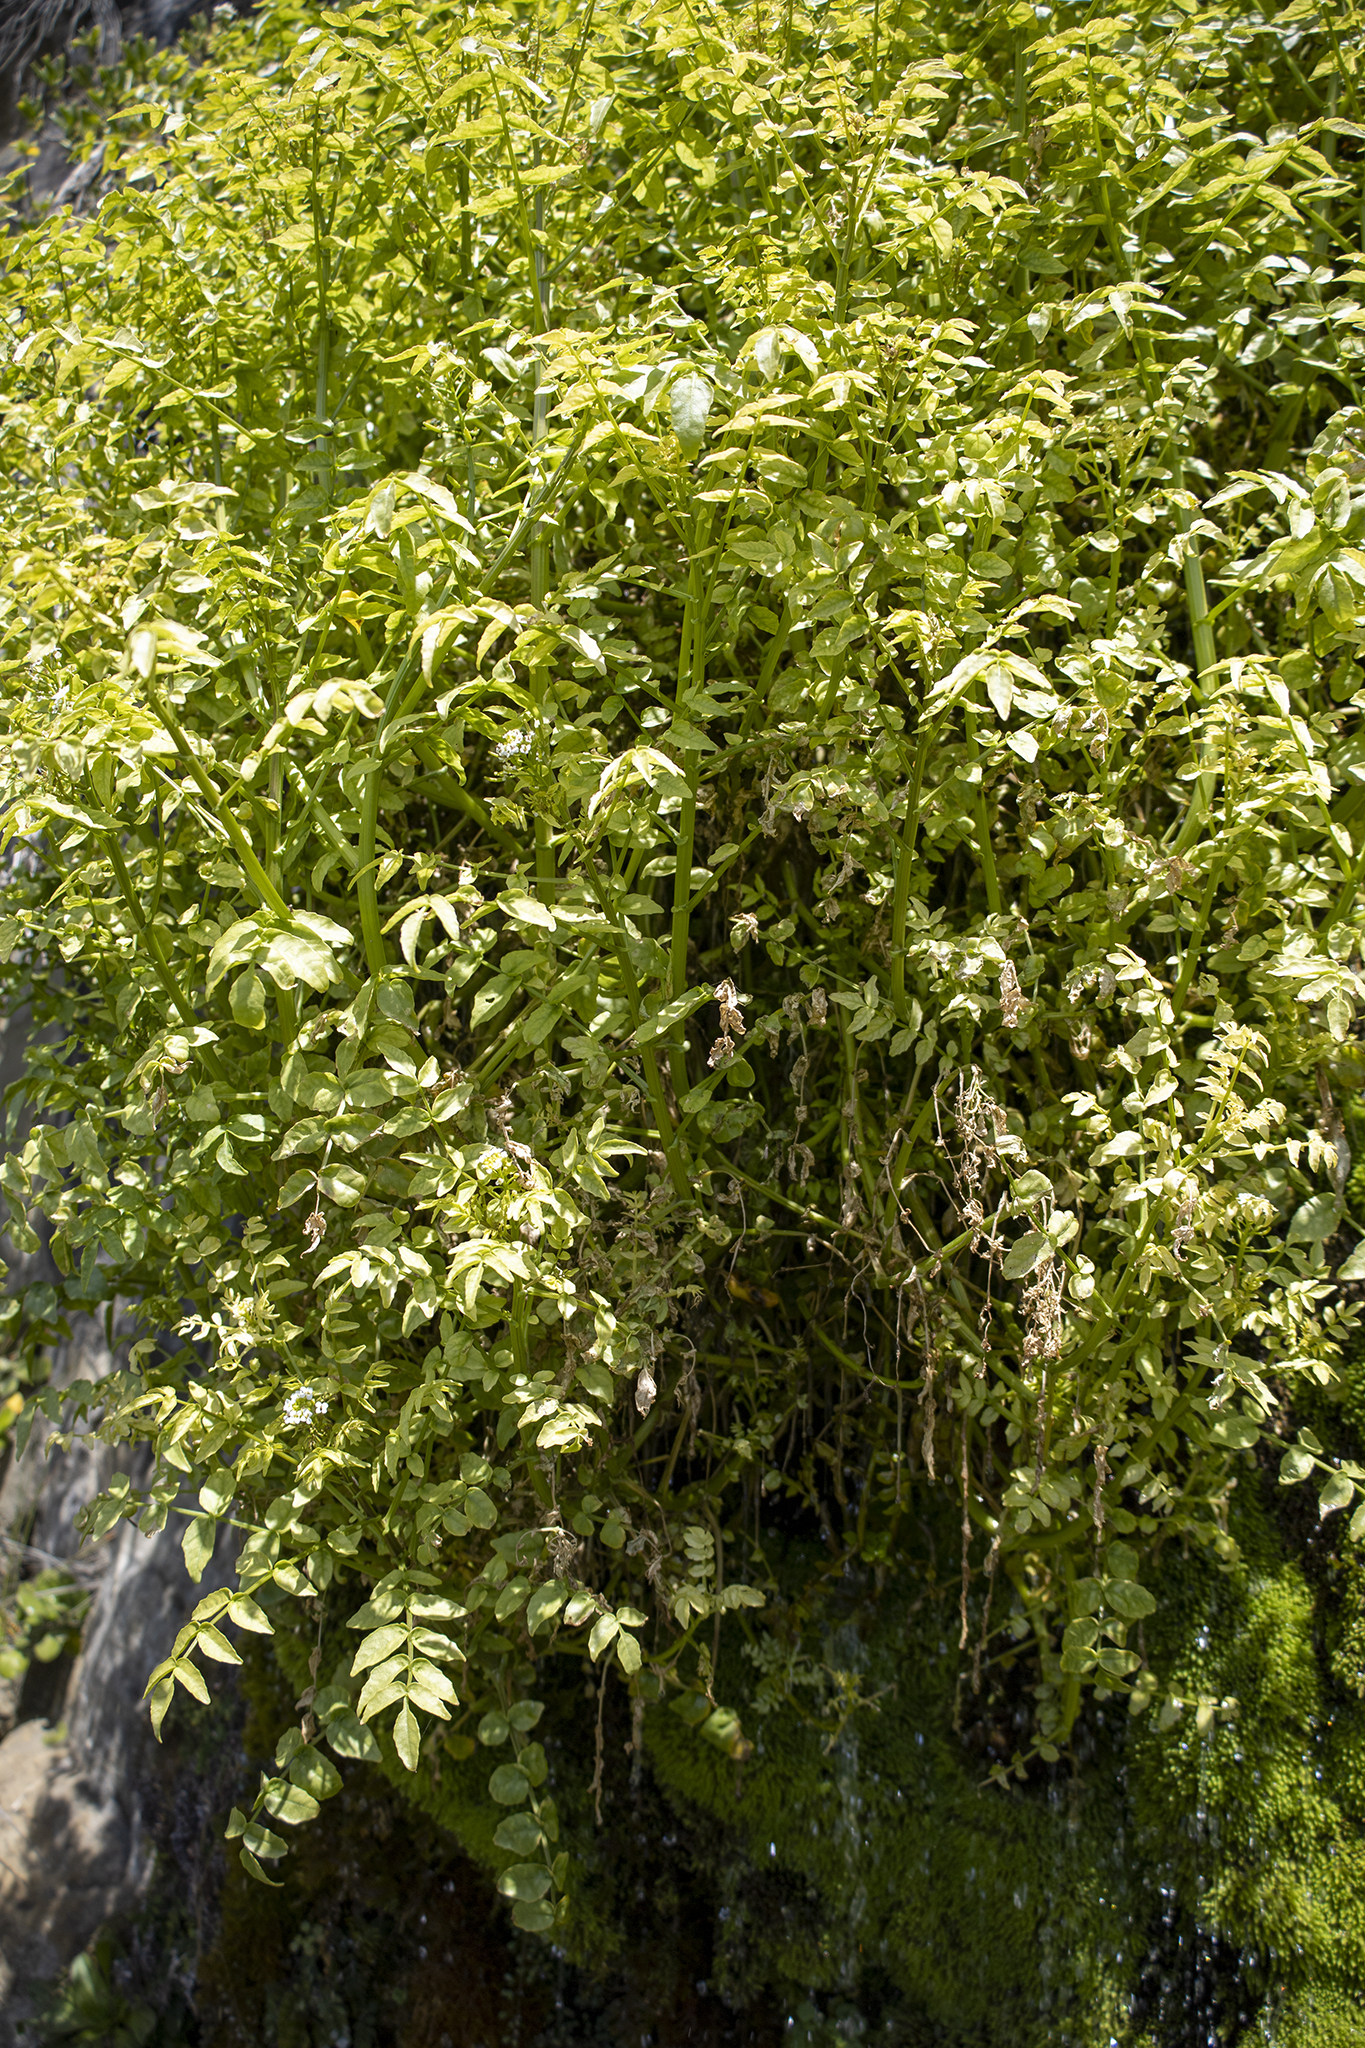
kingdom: Plantae
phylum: Tracheophyta
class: Magnoliopsida
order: Brassicales
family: Brassicaceae
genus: Nasturtium
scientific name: Nasturtium officinale
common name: Watercress
